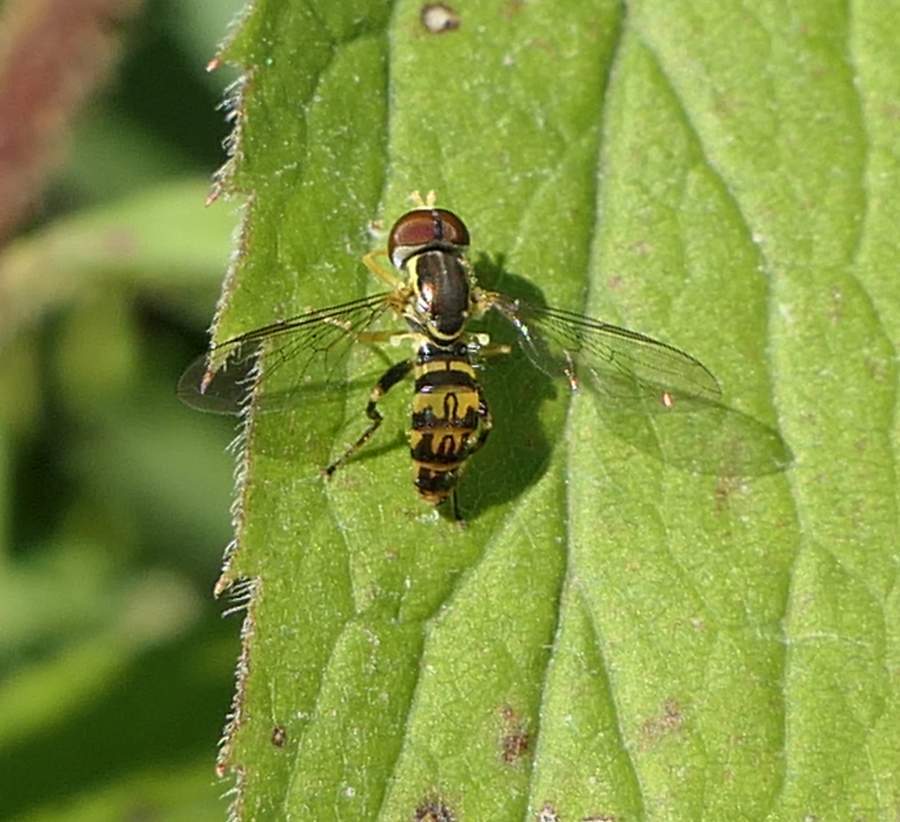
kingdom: Animalia
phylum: Arthropoda
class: Insecta
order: Diptera
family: Syrphidae
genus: Toxomerus
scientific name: Toxomerus geminatus
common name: Eastern calligrapher
